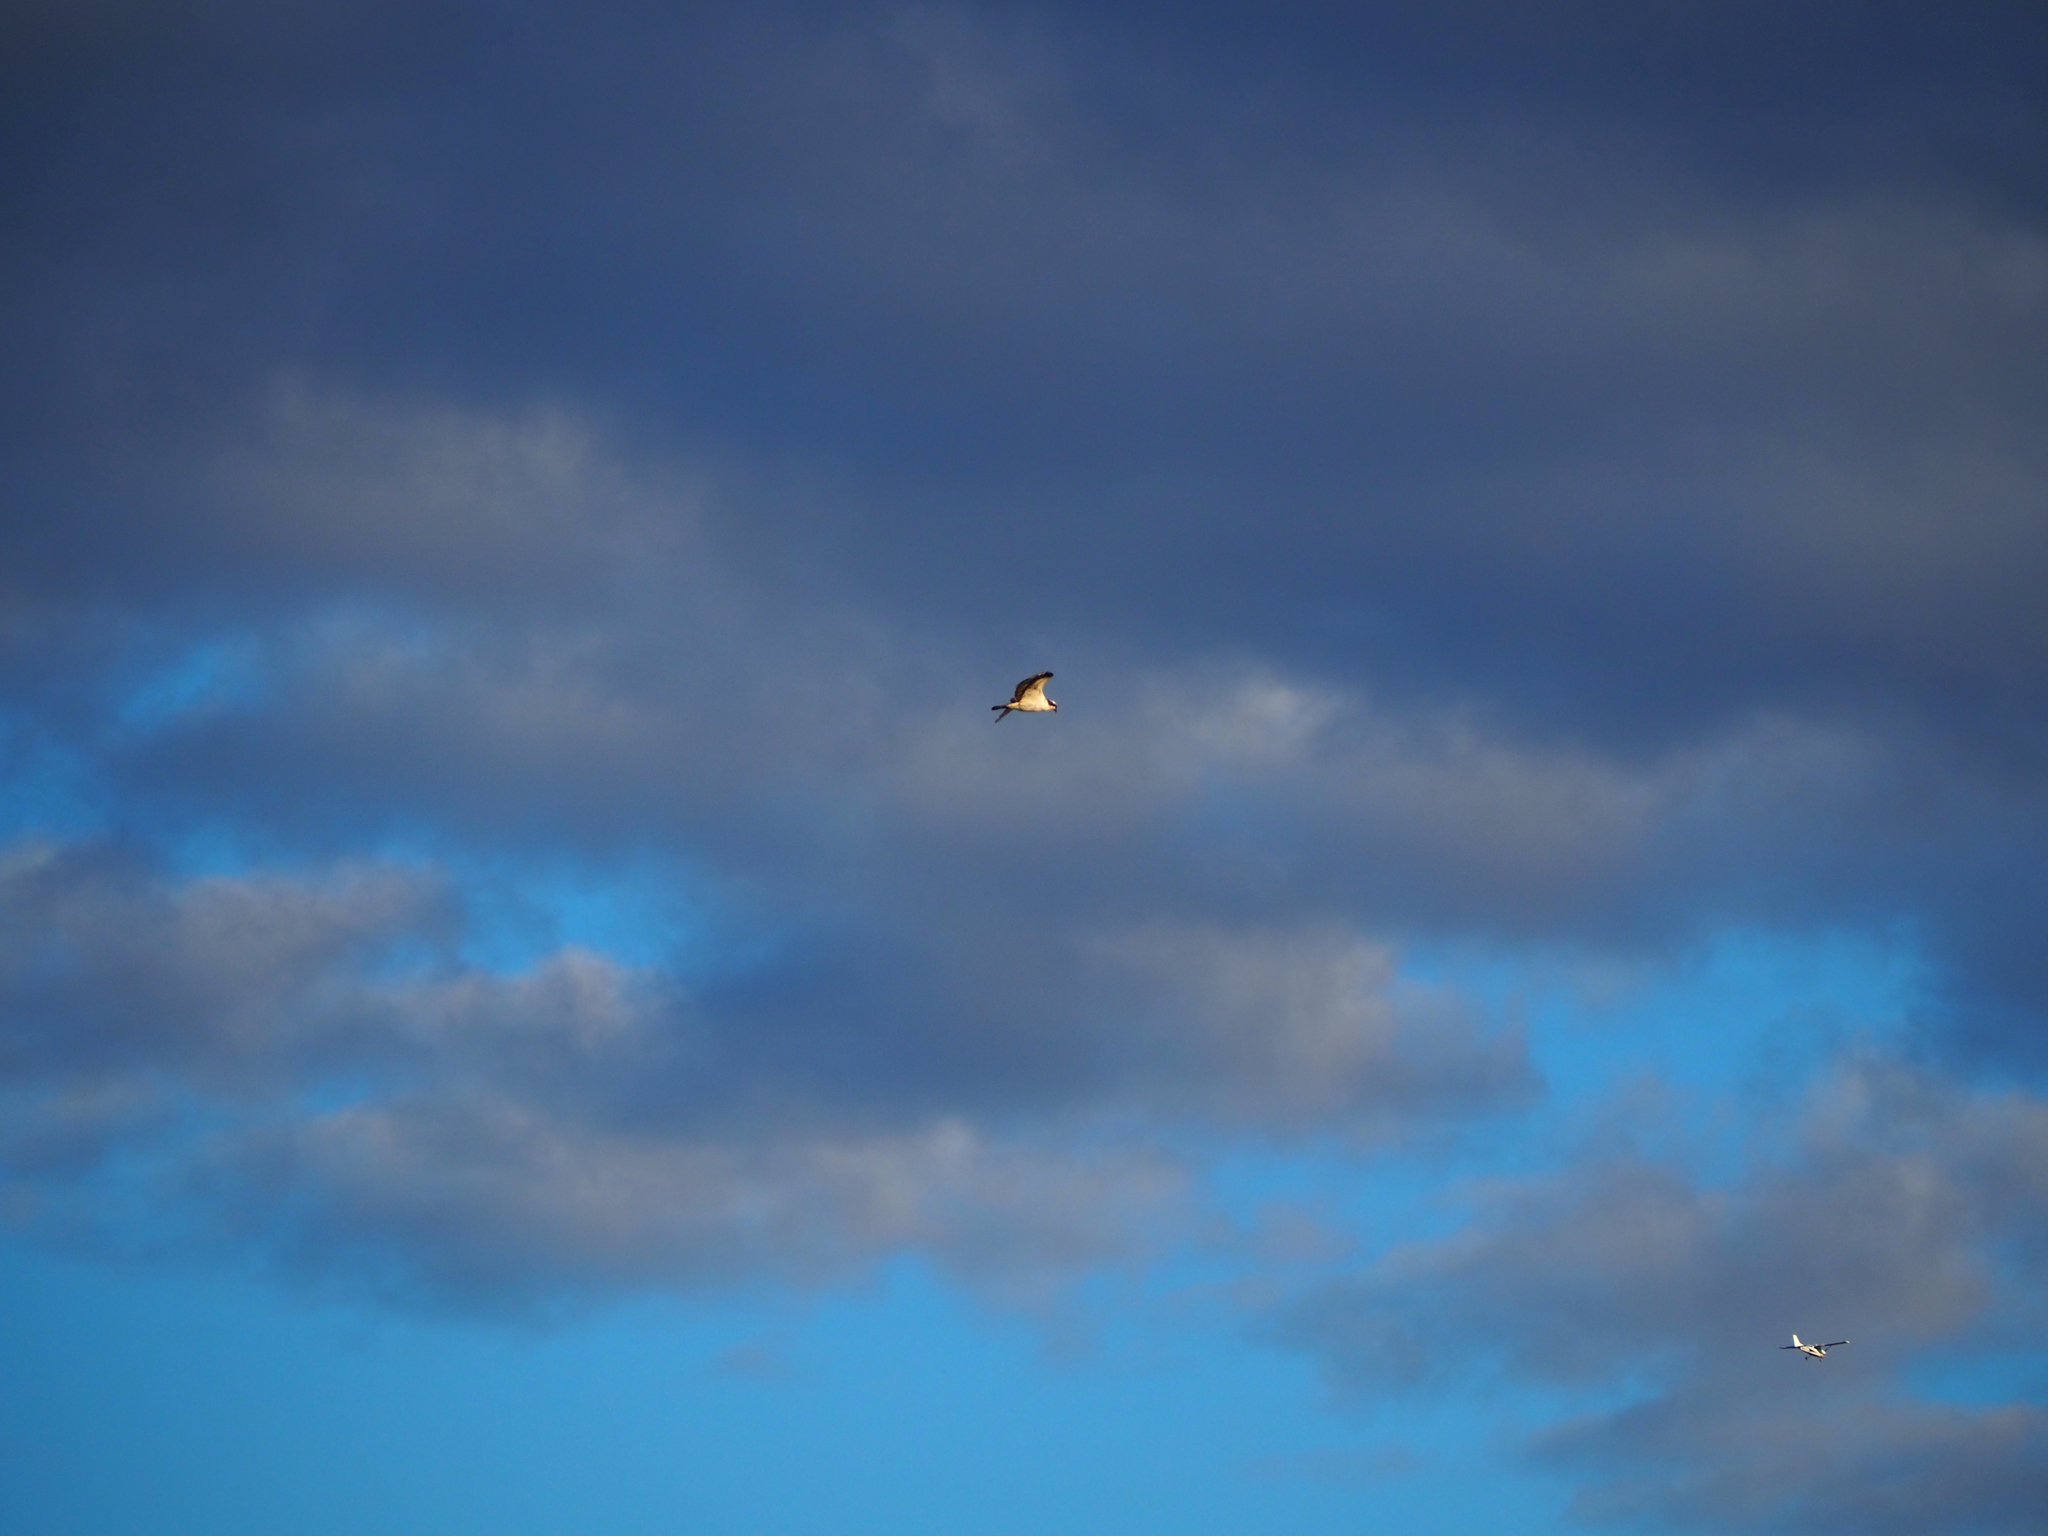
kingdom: Animalia
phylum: Chordata
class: Aves
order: Accipitriformes
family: Pandionidae
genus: Pandion
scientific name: Pandion haliaetus
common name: Osprey
